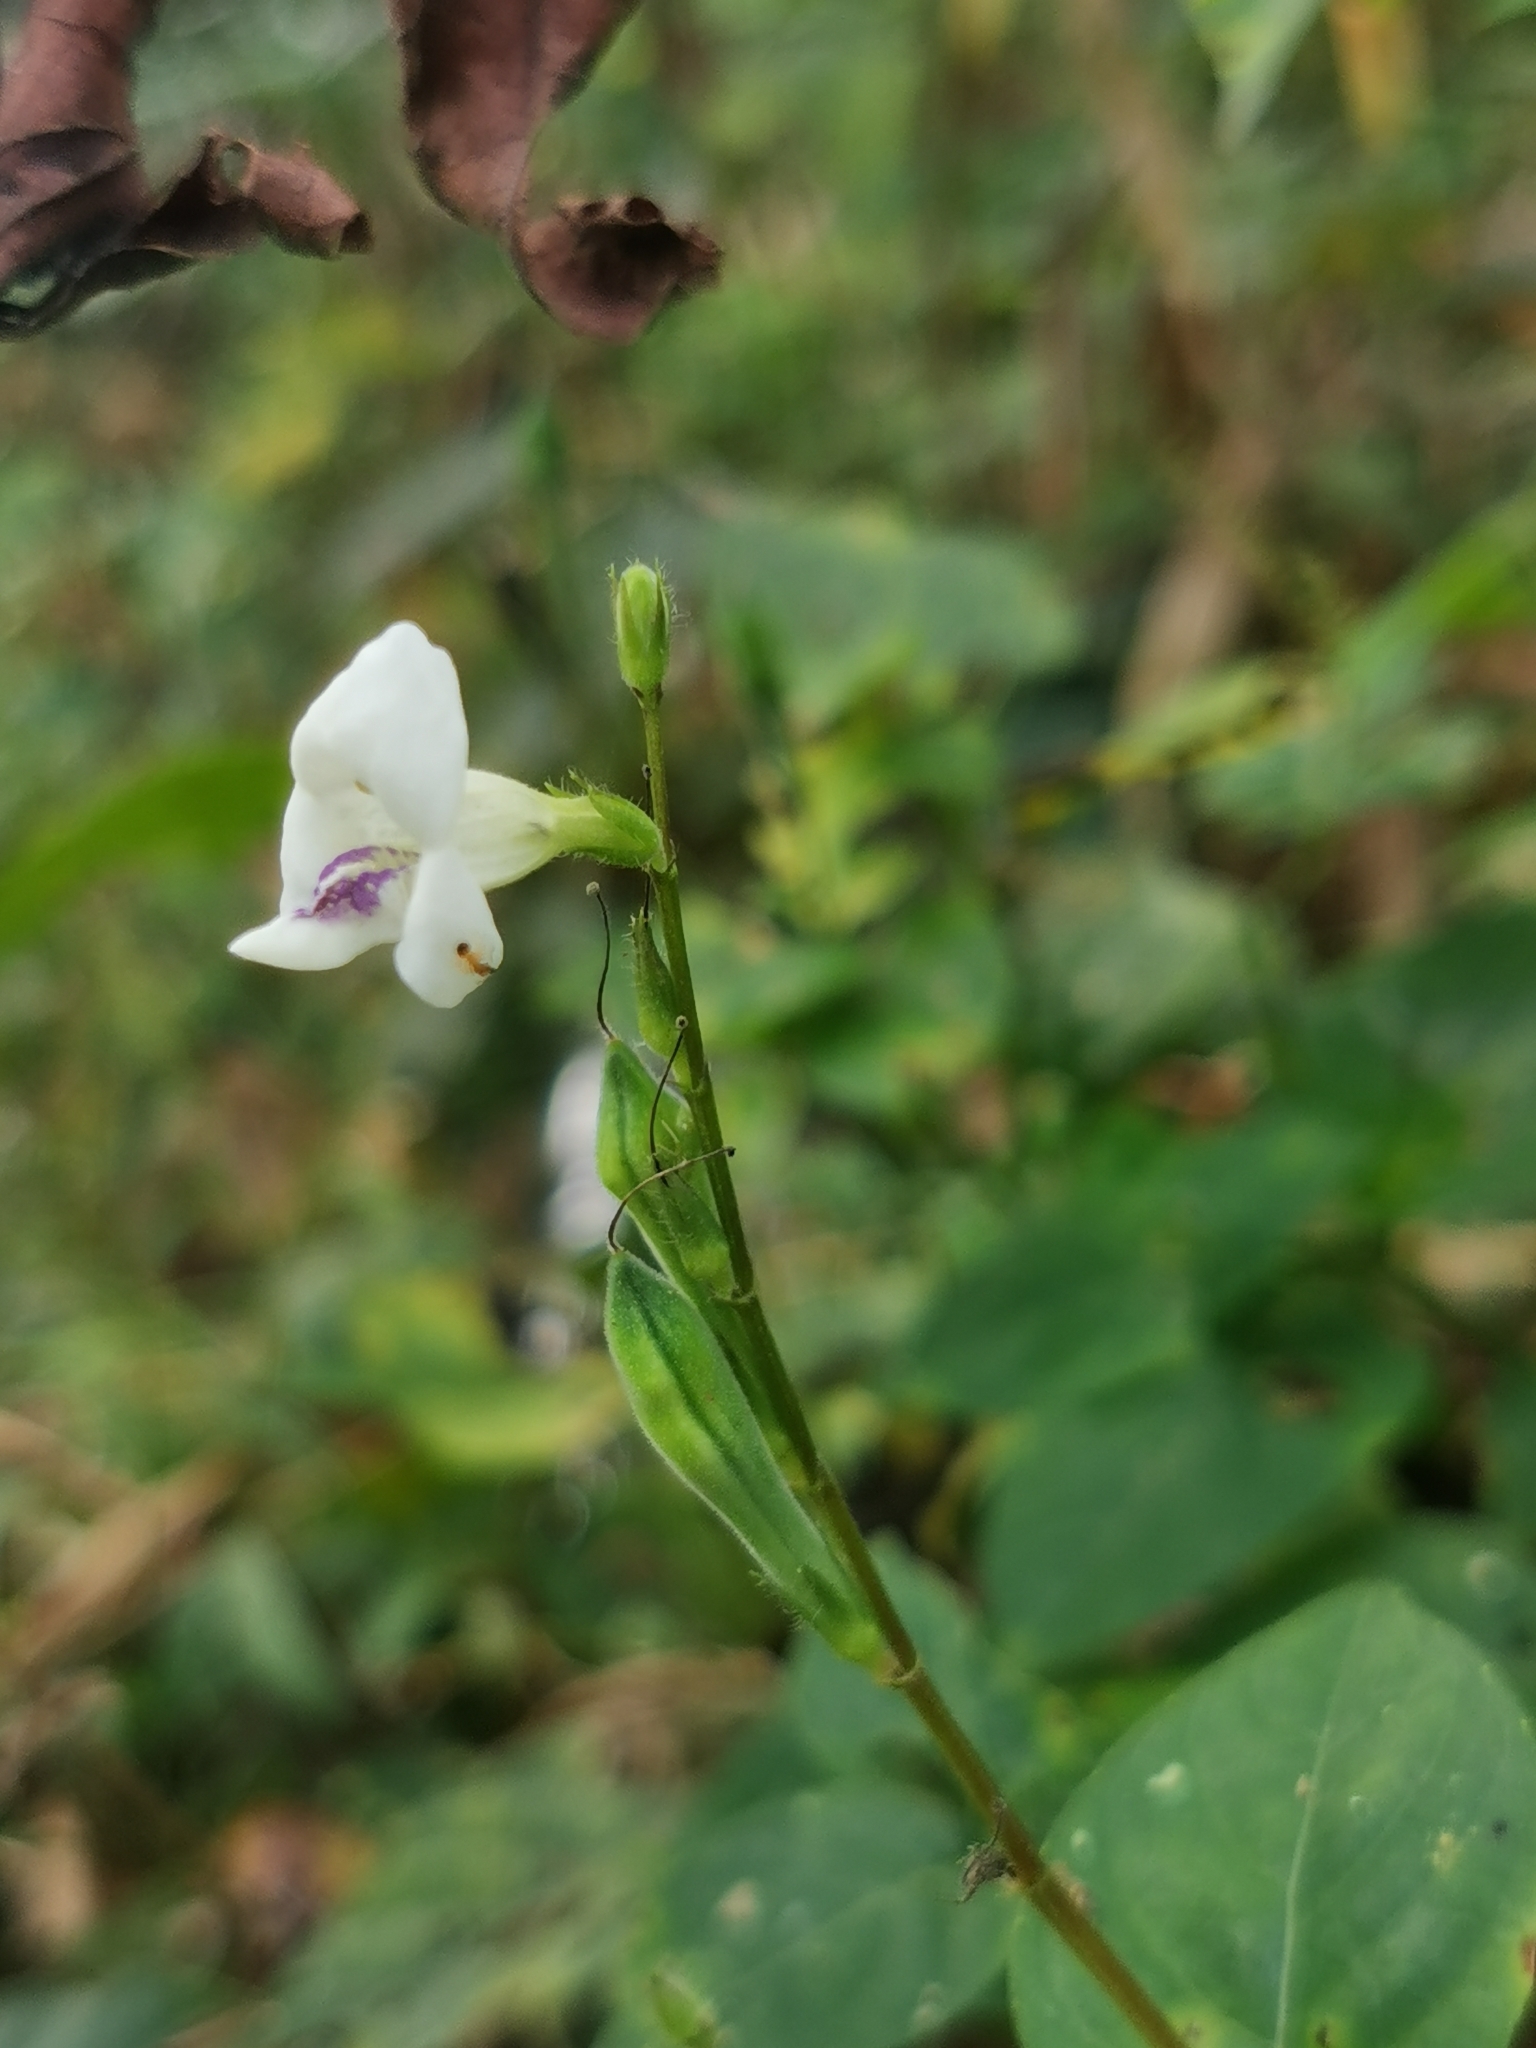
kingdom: Plantae
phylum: Tracheophyta
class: Magnoliopsida
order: Lamiales
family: Acanthaceae
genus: Asystasia
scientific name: Asystasia intrusa
